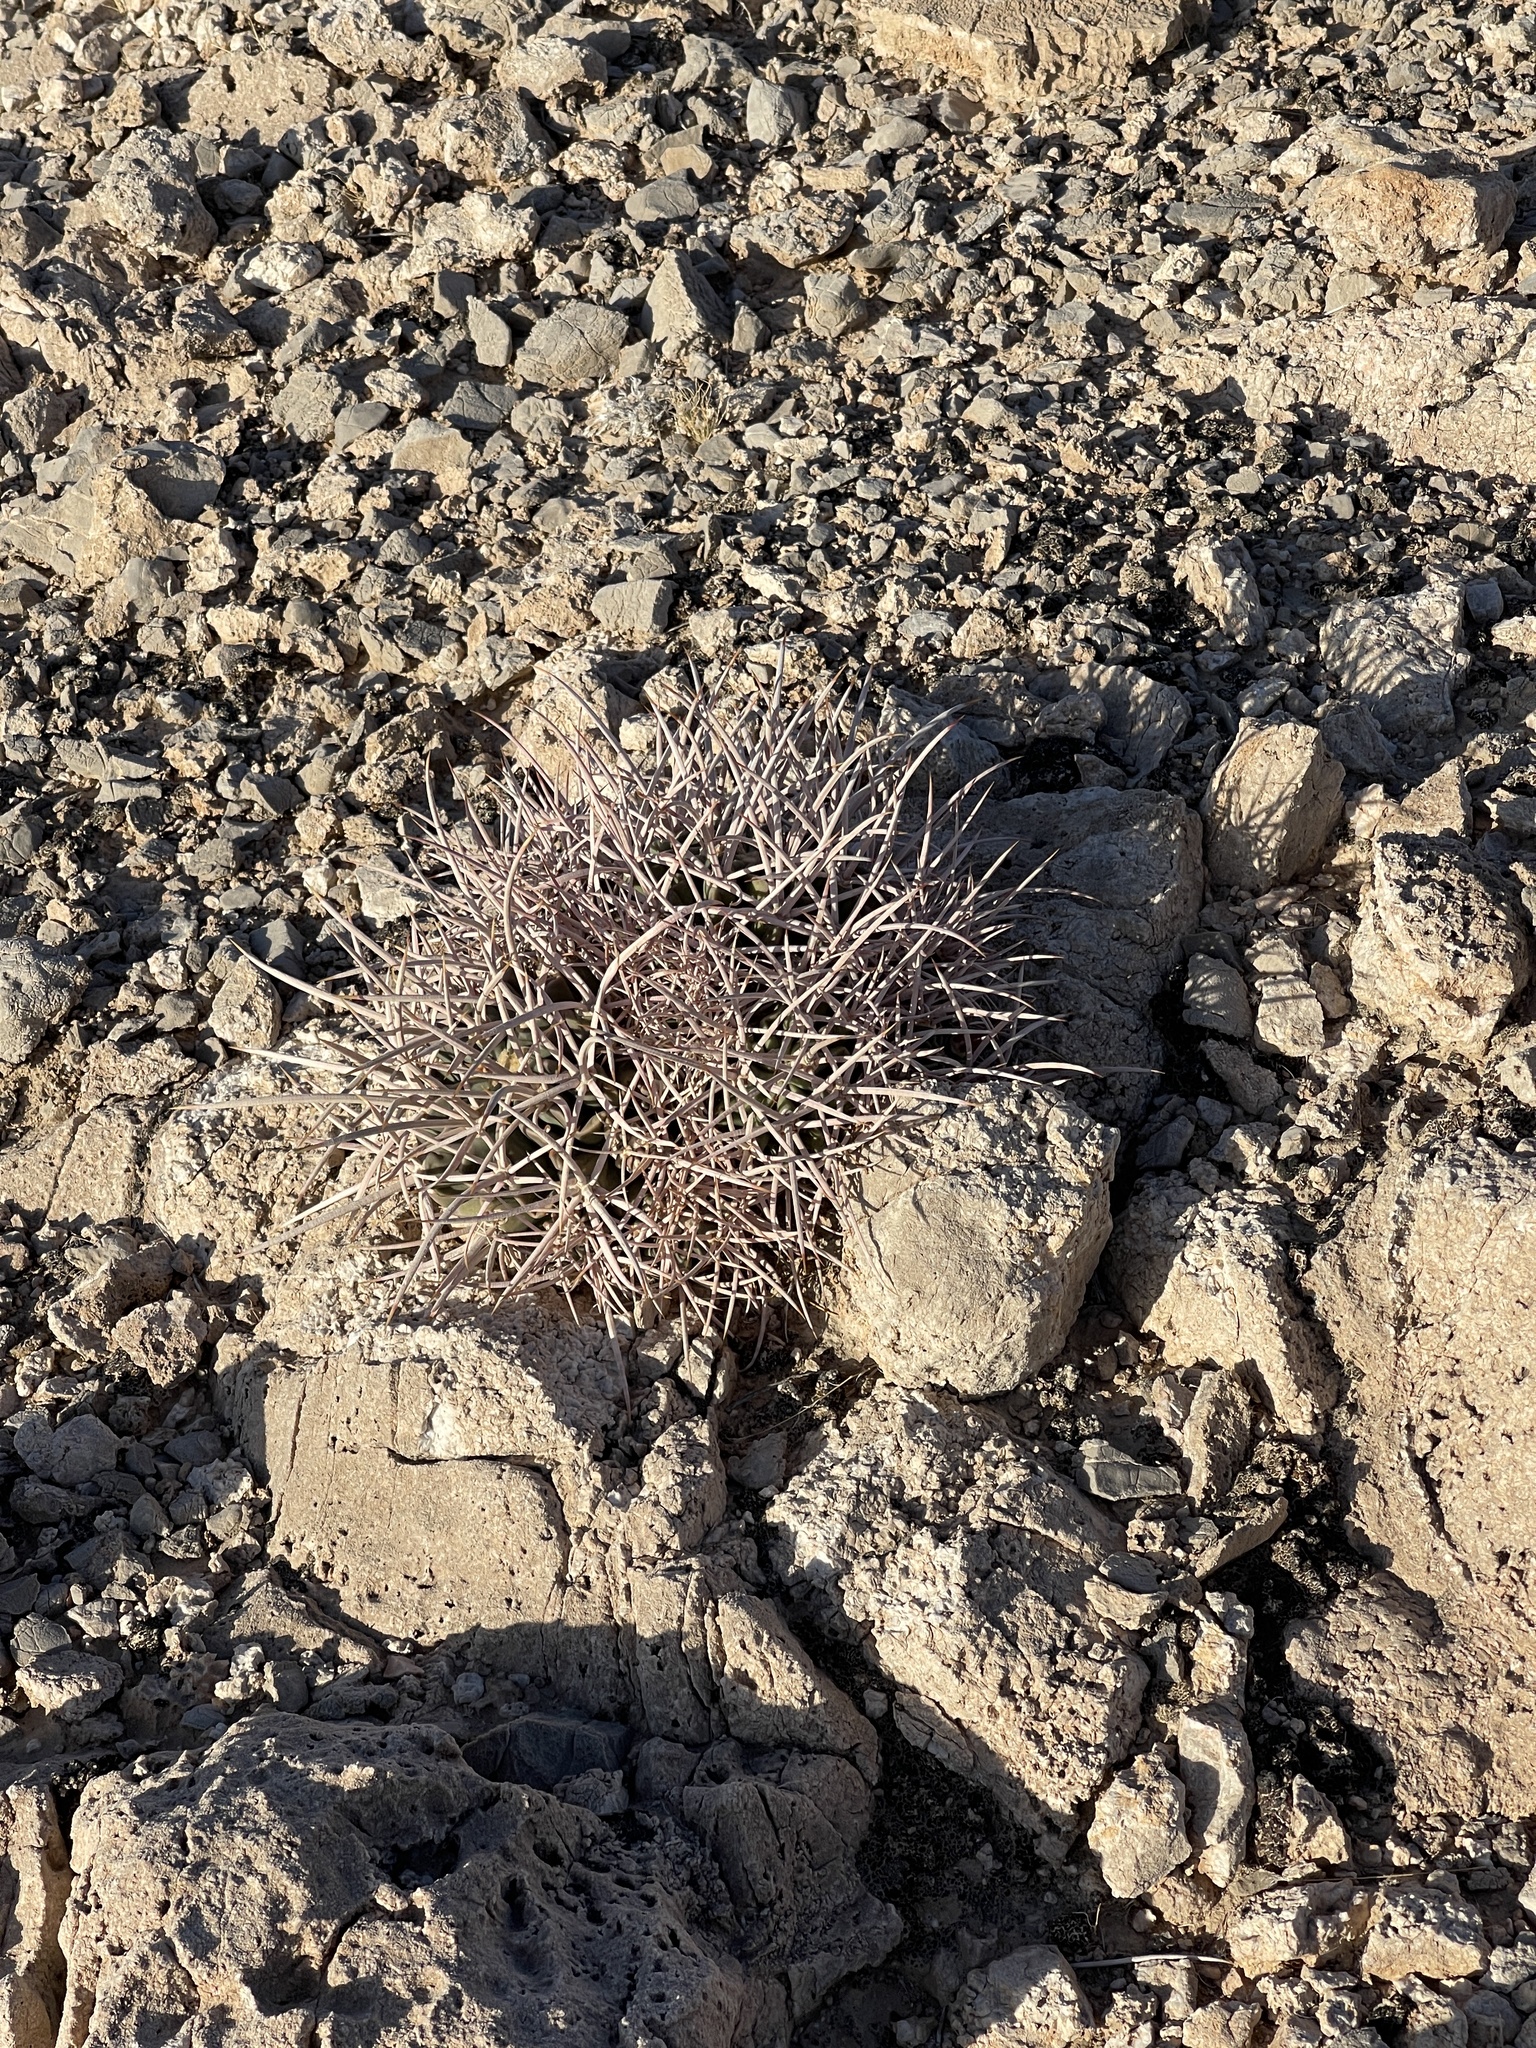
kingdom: Plantae
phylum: Tracheophyta
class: Magnoliopsida
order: Caryophyllales
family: Cactaceae
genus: Echinocactus
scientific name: Echinocactus polycephalus
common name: Cottontop cactus
